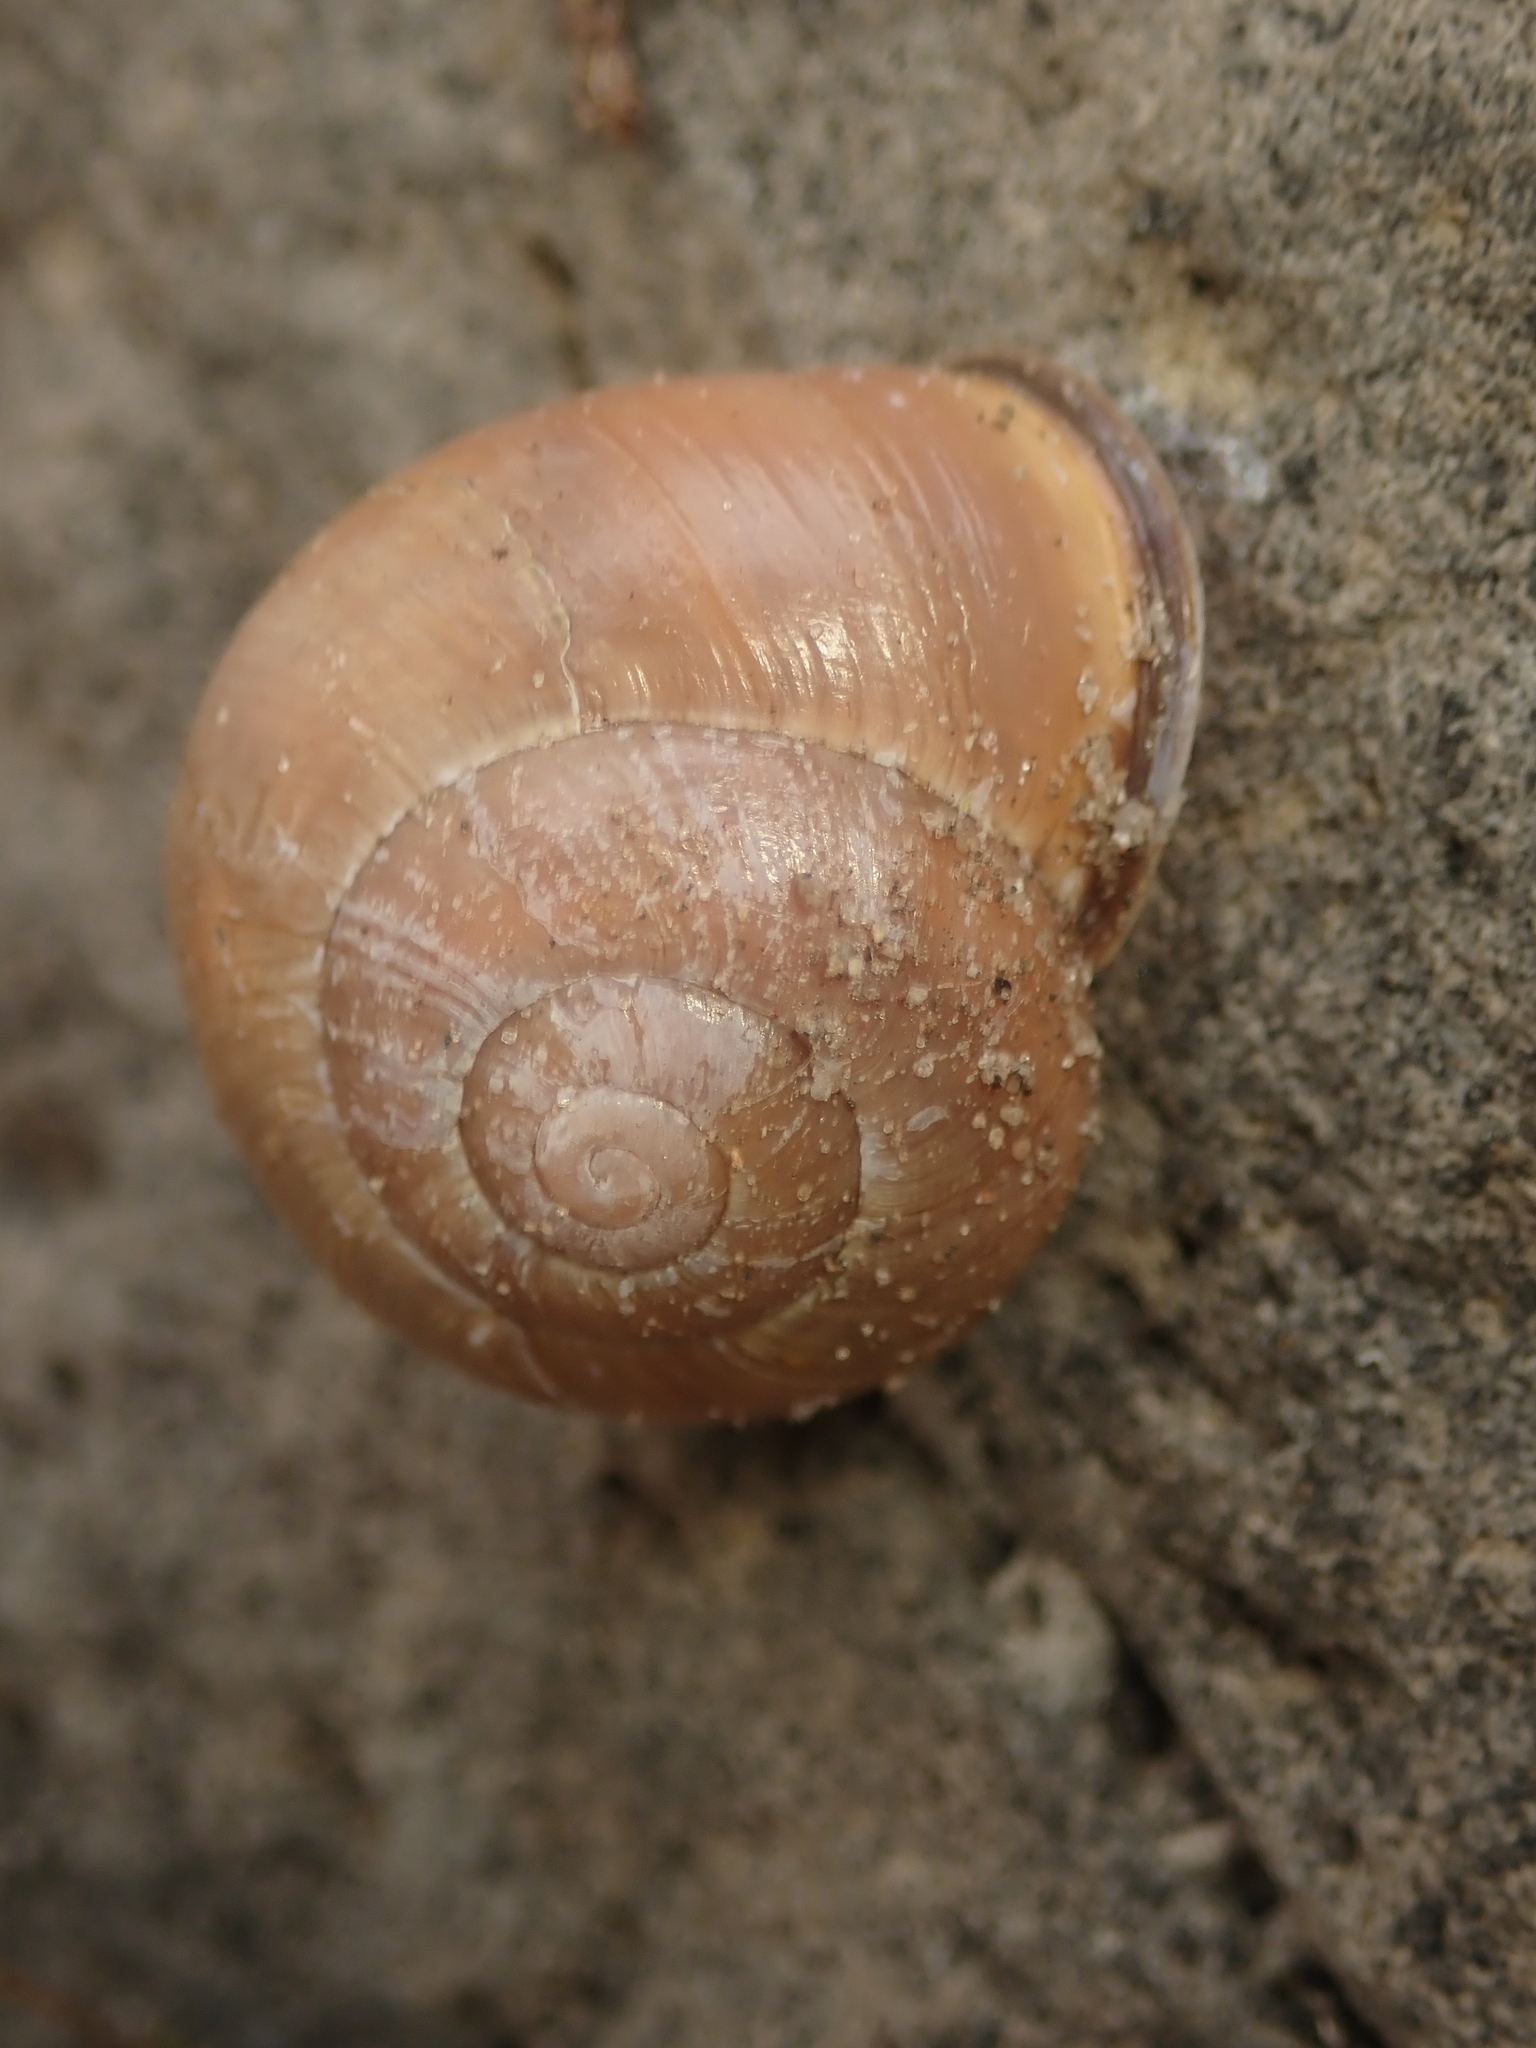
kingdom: Animalia
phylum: Mollusca
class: Gastropoda
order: Stylommatophora
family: Helicidae
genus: Cepaea
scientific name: Cepaea nemoralis
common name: Grovesnail
